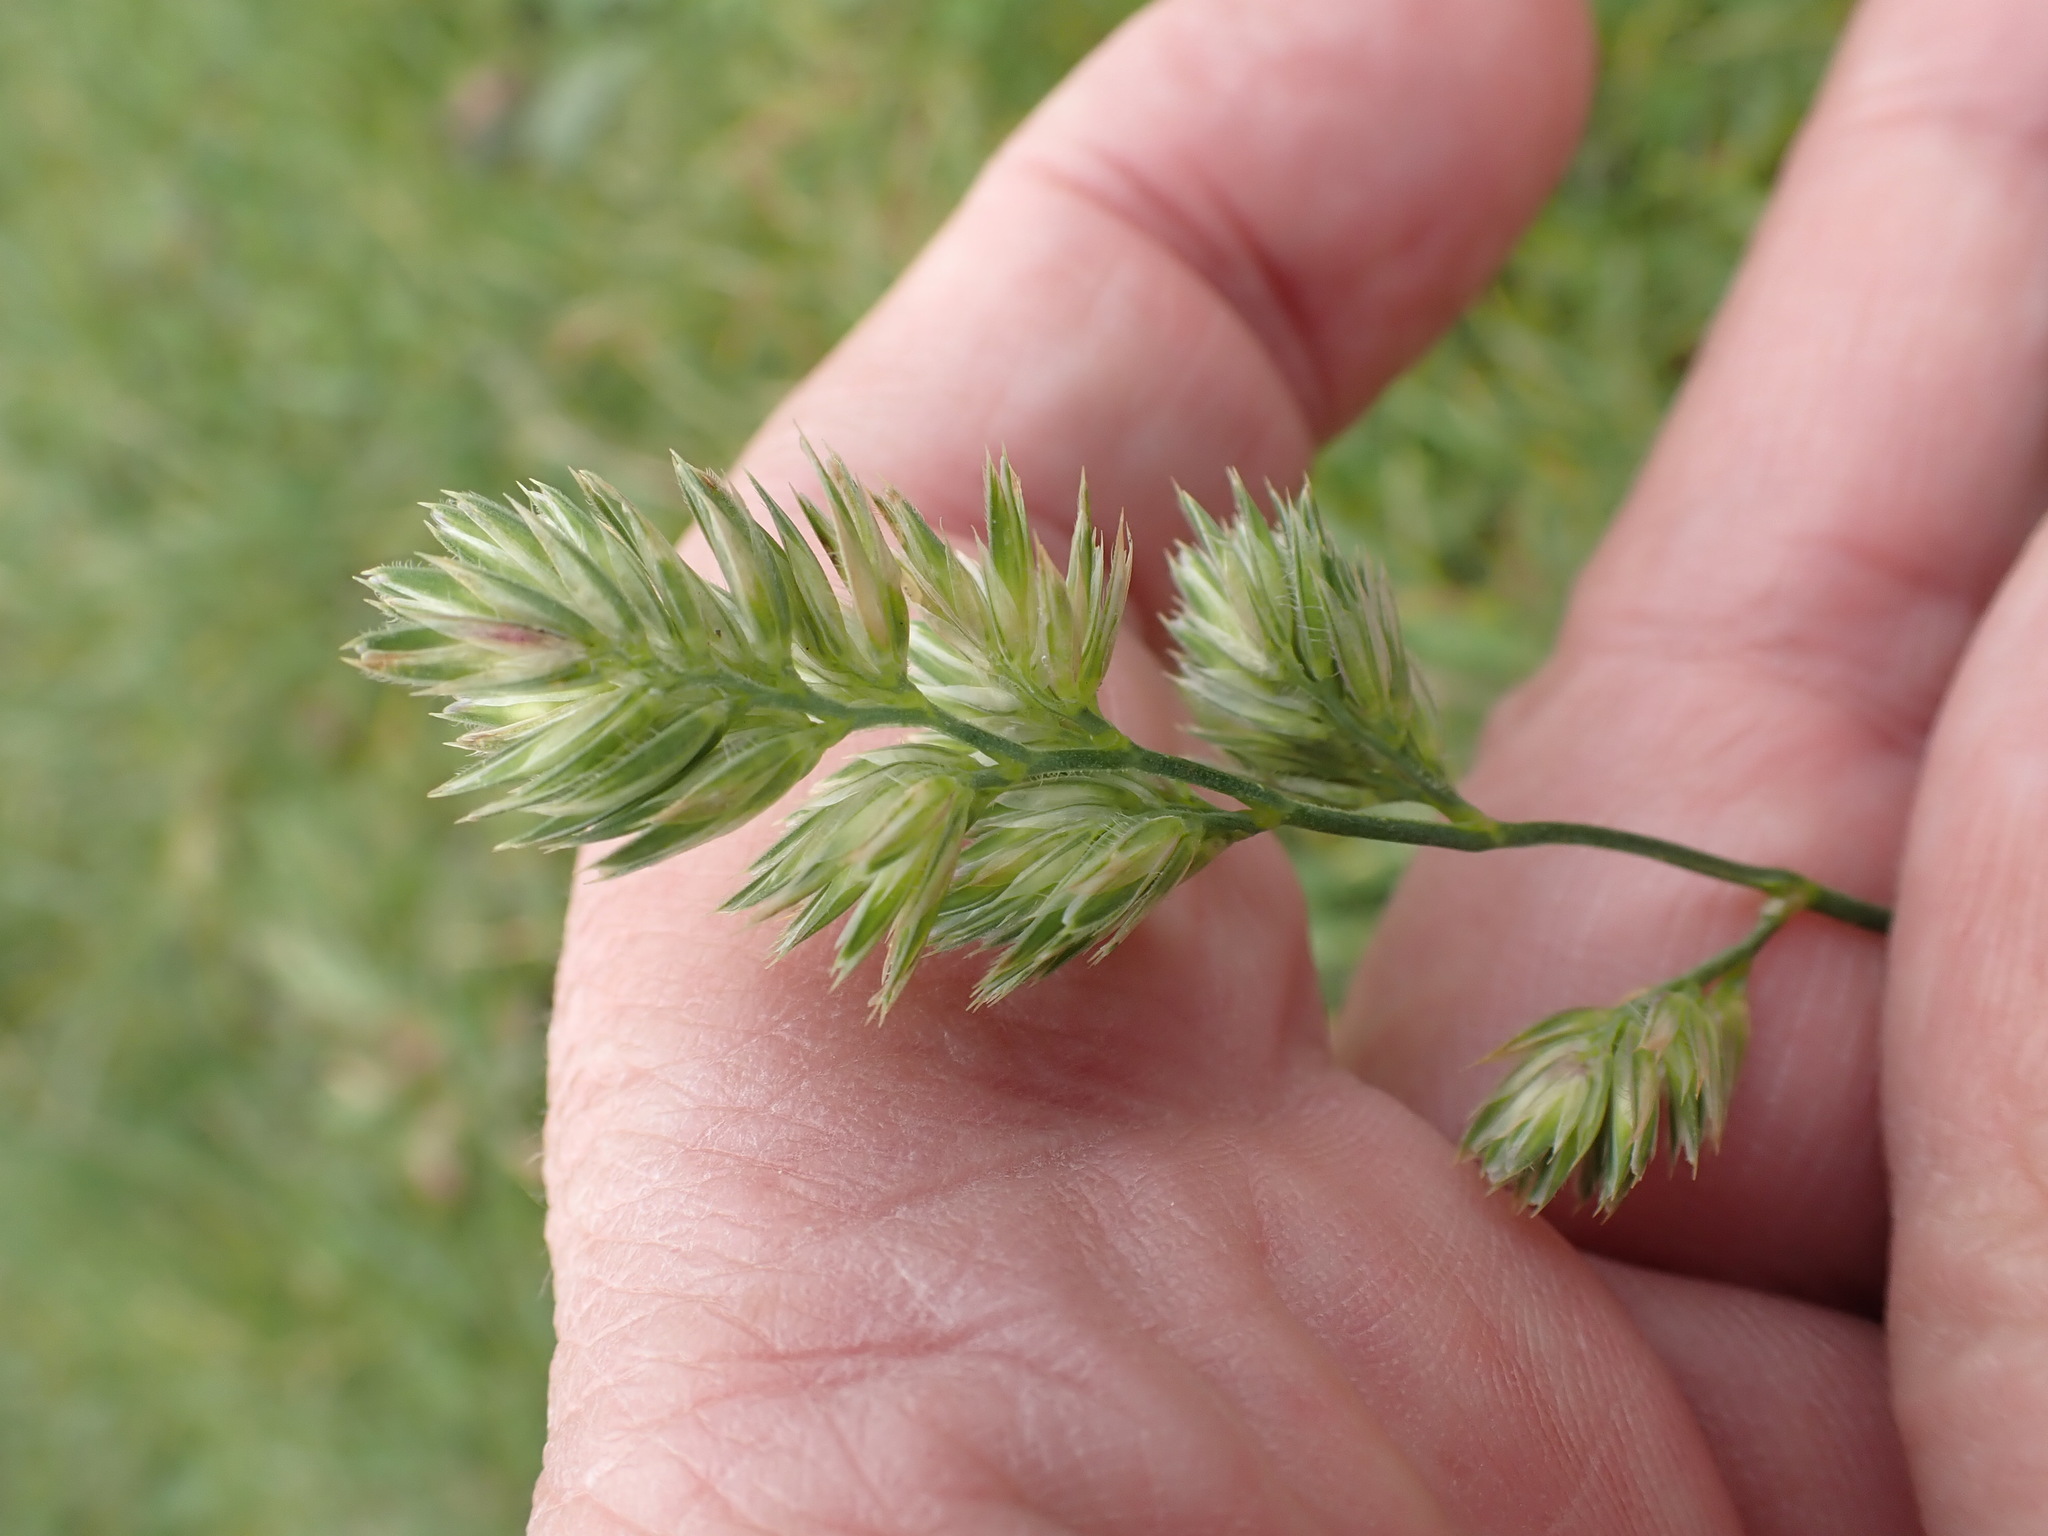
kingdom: Plantae
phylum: Tracheophyta
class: Liliopsida
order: Poales
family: Poaceae
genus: Dactylis
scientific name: Dactylis glomerata
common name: Orchardgrass
